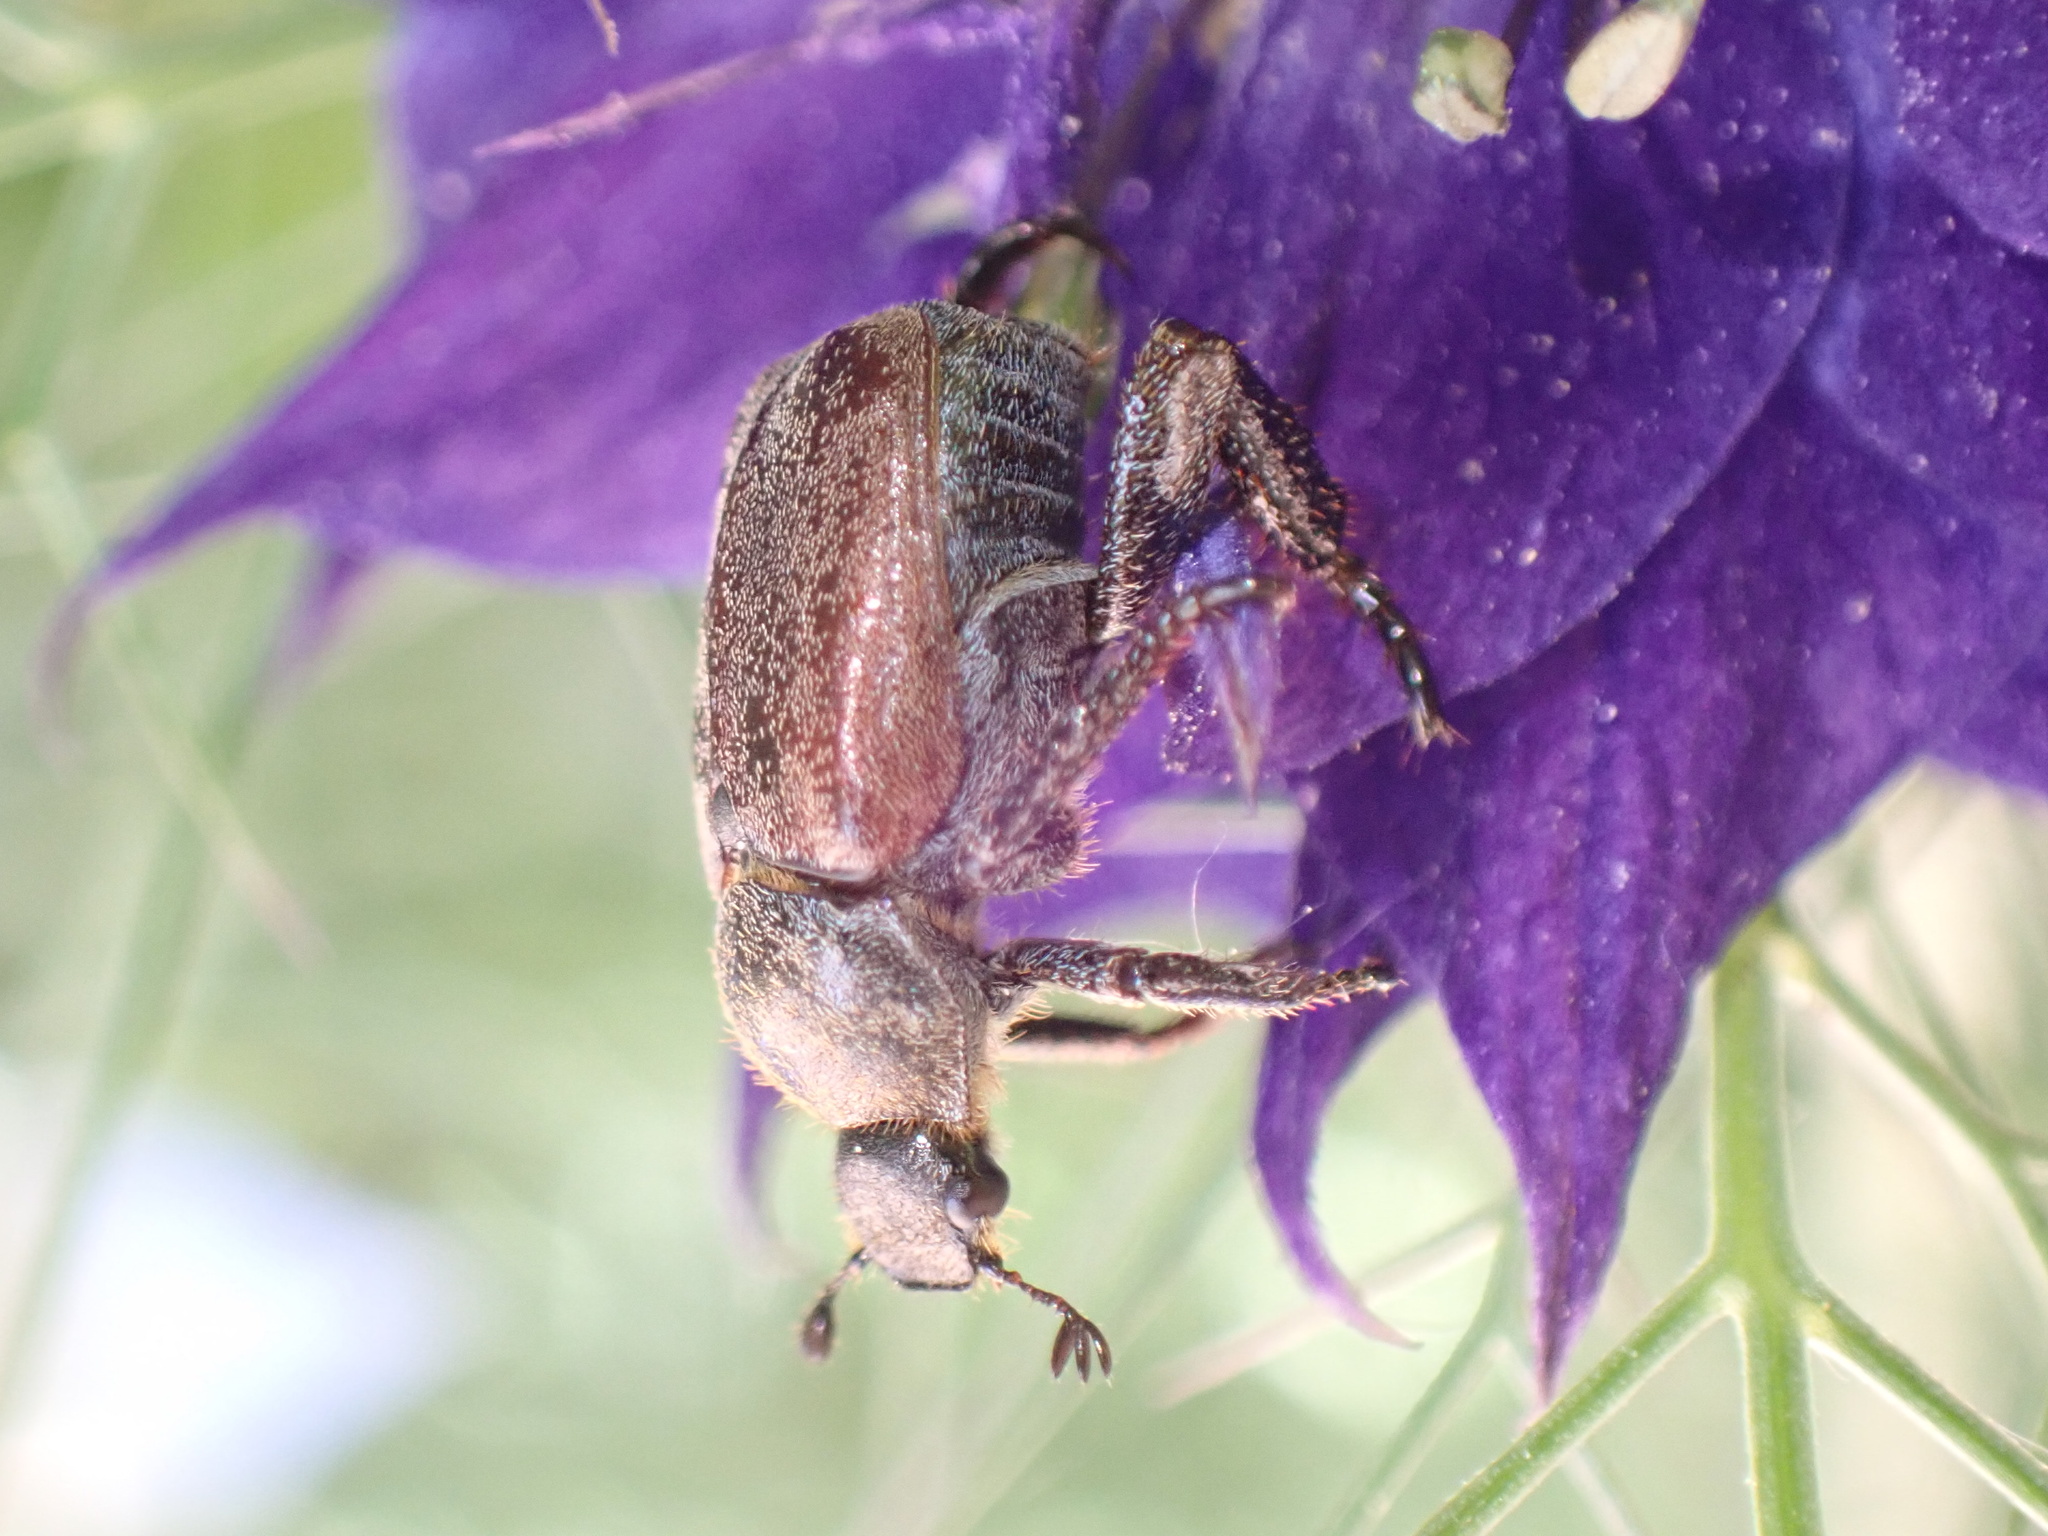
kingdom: Animalia
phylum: Arthropoda
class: Insecta
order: Coleoptera
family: Scarabaeidae
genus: Hoplia
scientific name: Hoplia philanthus
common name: Welsh chafer
